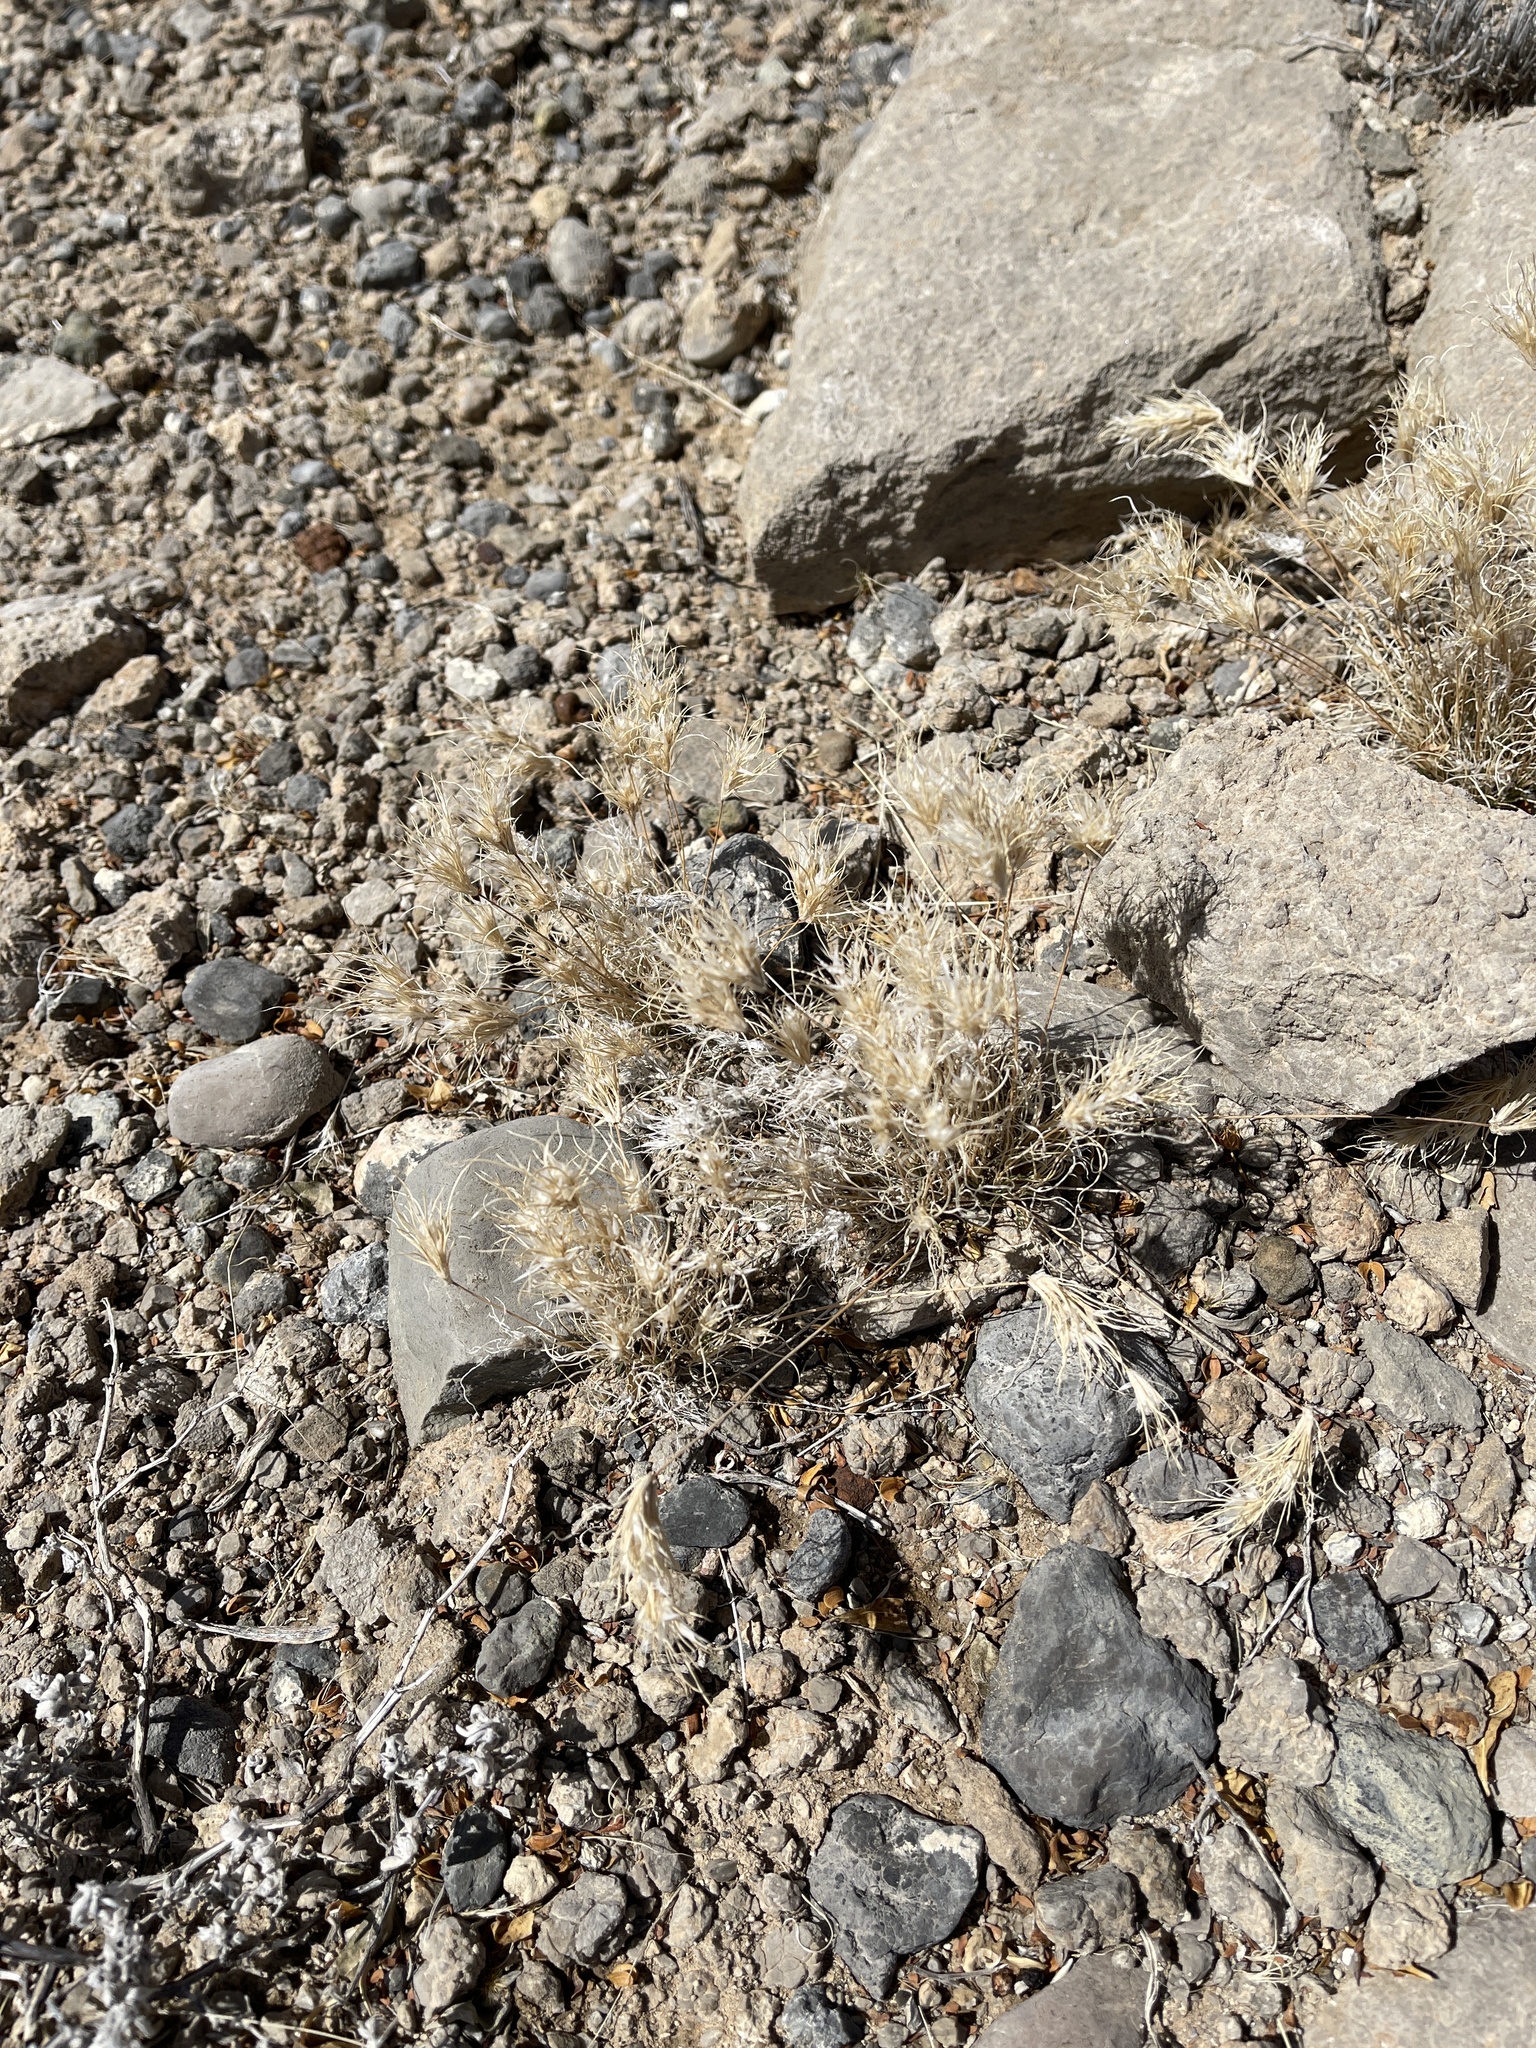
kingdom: Plantae
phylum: Tracheophyta
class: Liliopsida
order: Poales
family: Poaceae
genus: Dasyochloa
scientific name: Dasyochloa pulchella
